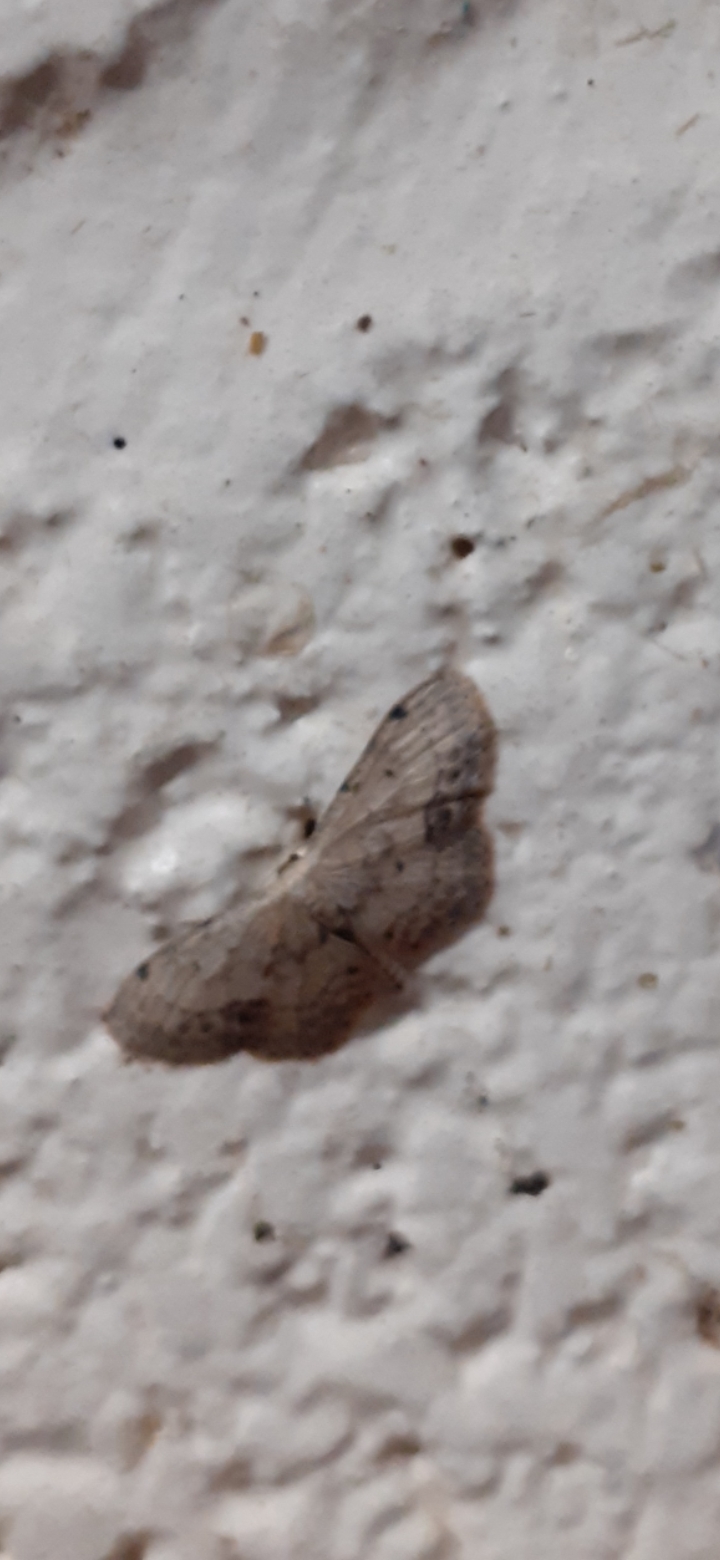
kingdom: Animalia
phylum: Arthropoda
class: Insecta
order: Lepidoptera
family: Geometridae
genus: Idaea
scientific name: Idaea dimidiata
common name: Single-dotted wave
